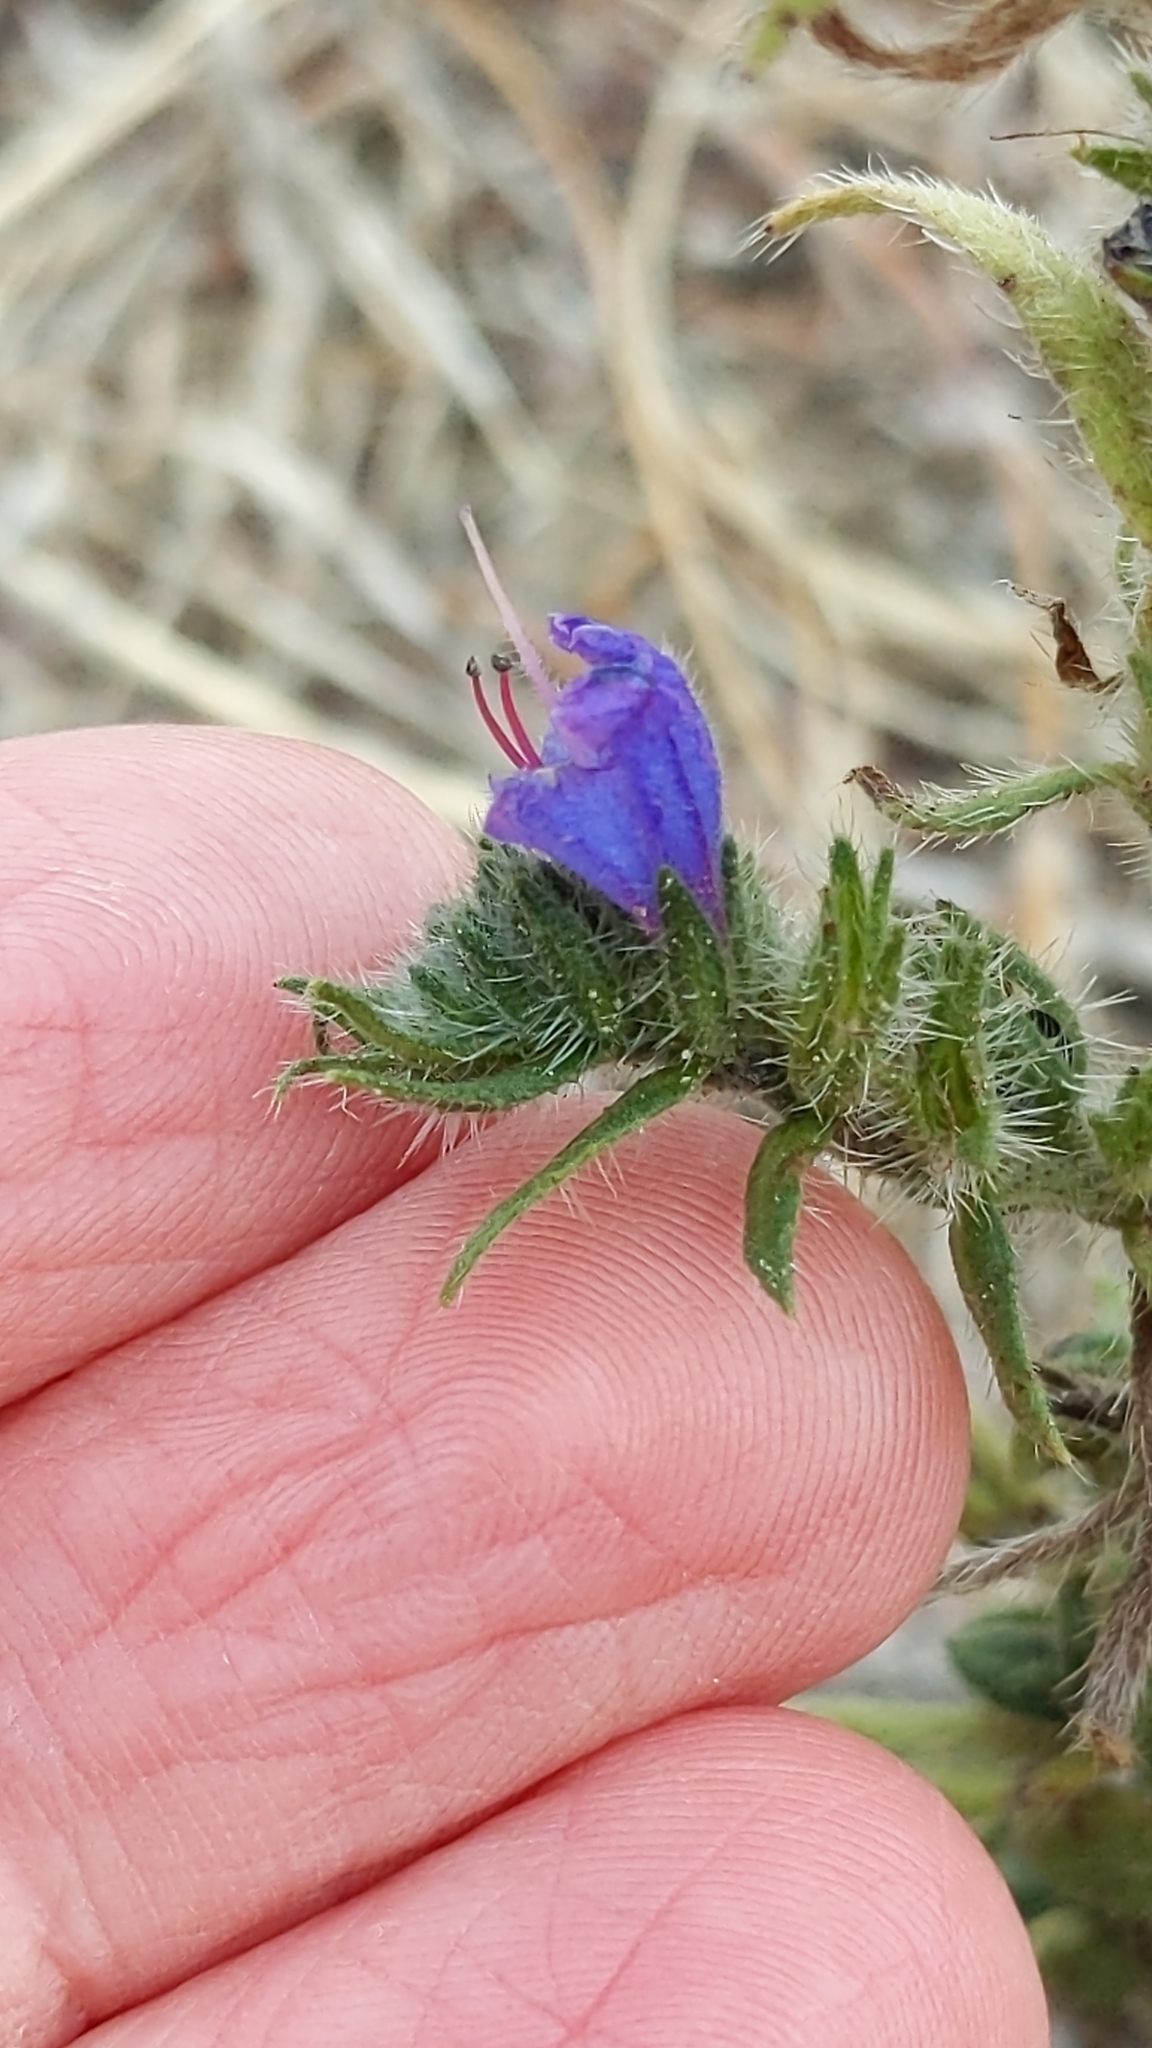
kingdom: Plantae
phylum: Tracheophyta
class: Magnoliopsida
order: Boraginales
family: Boraginaceae
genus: Echium
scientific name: Echium vulgare
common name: Common viper's bugloss
